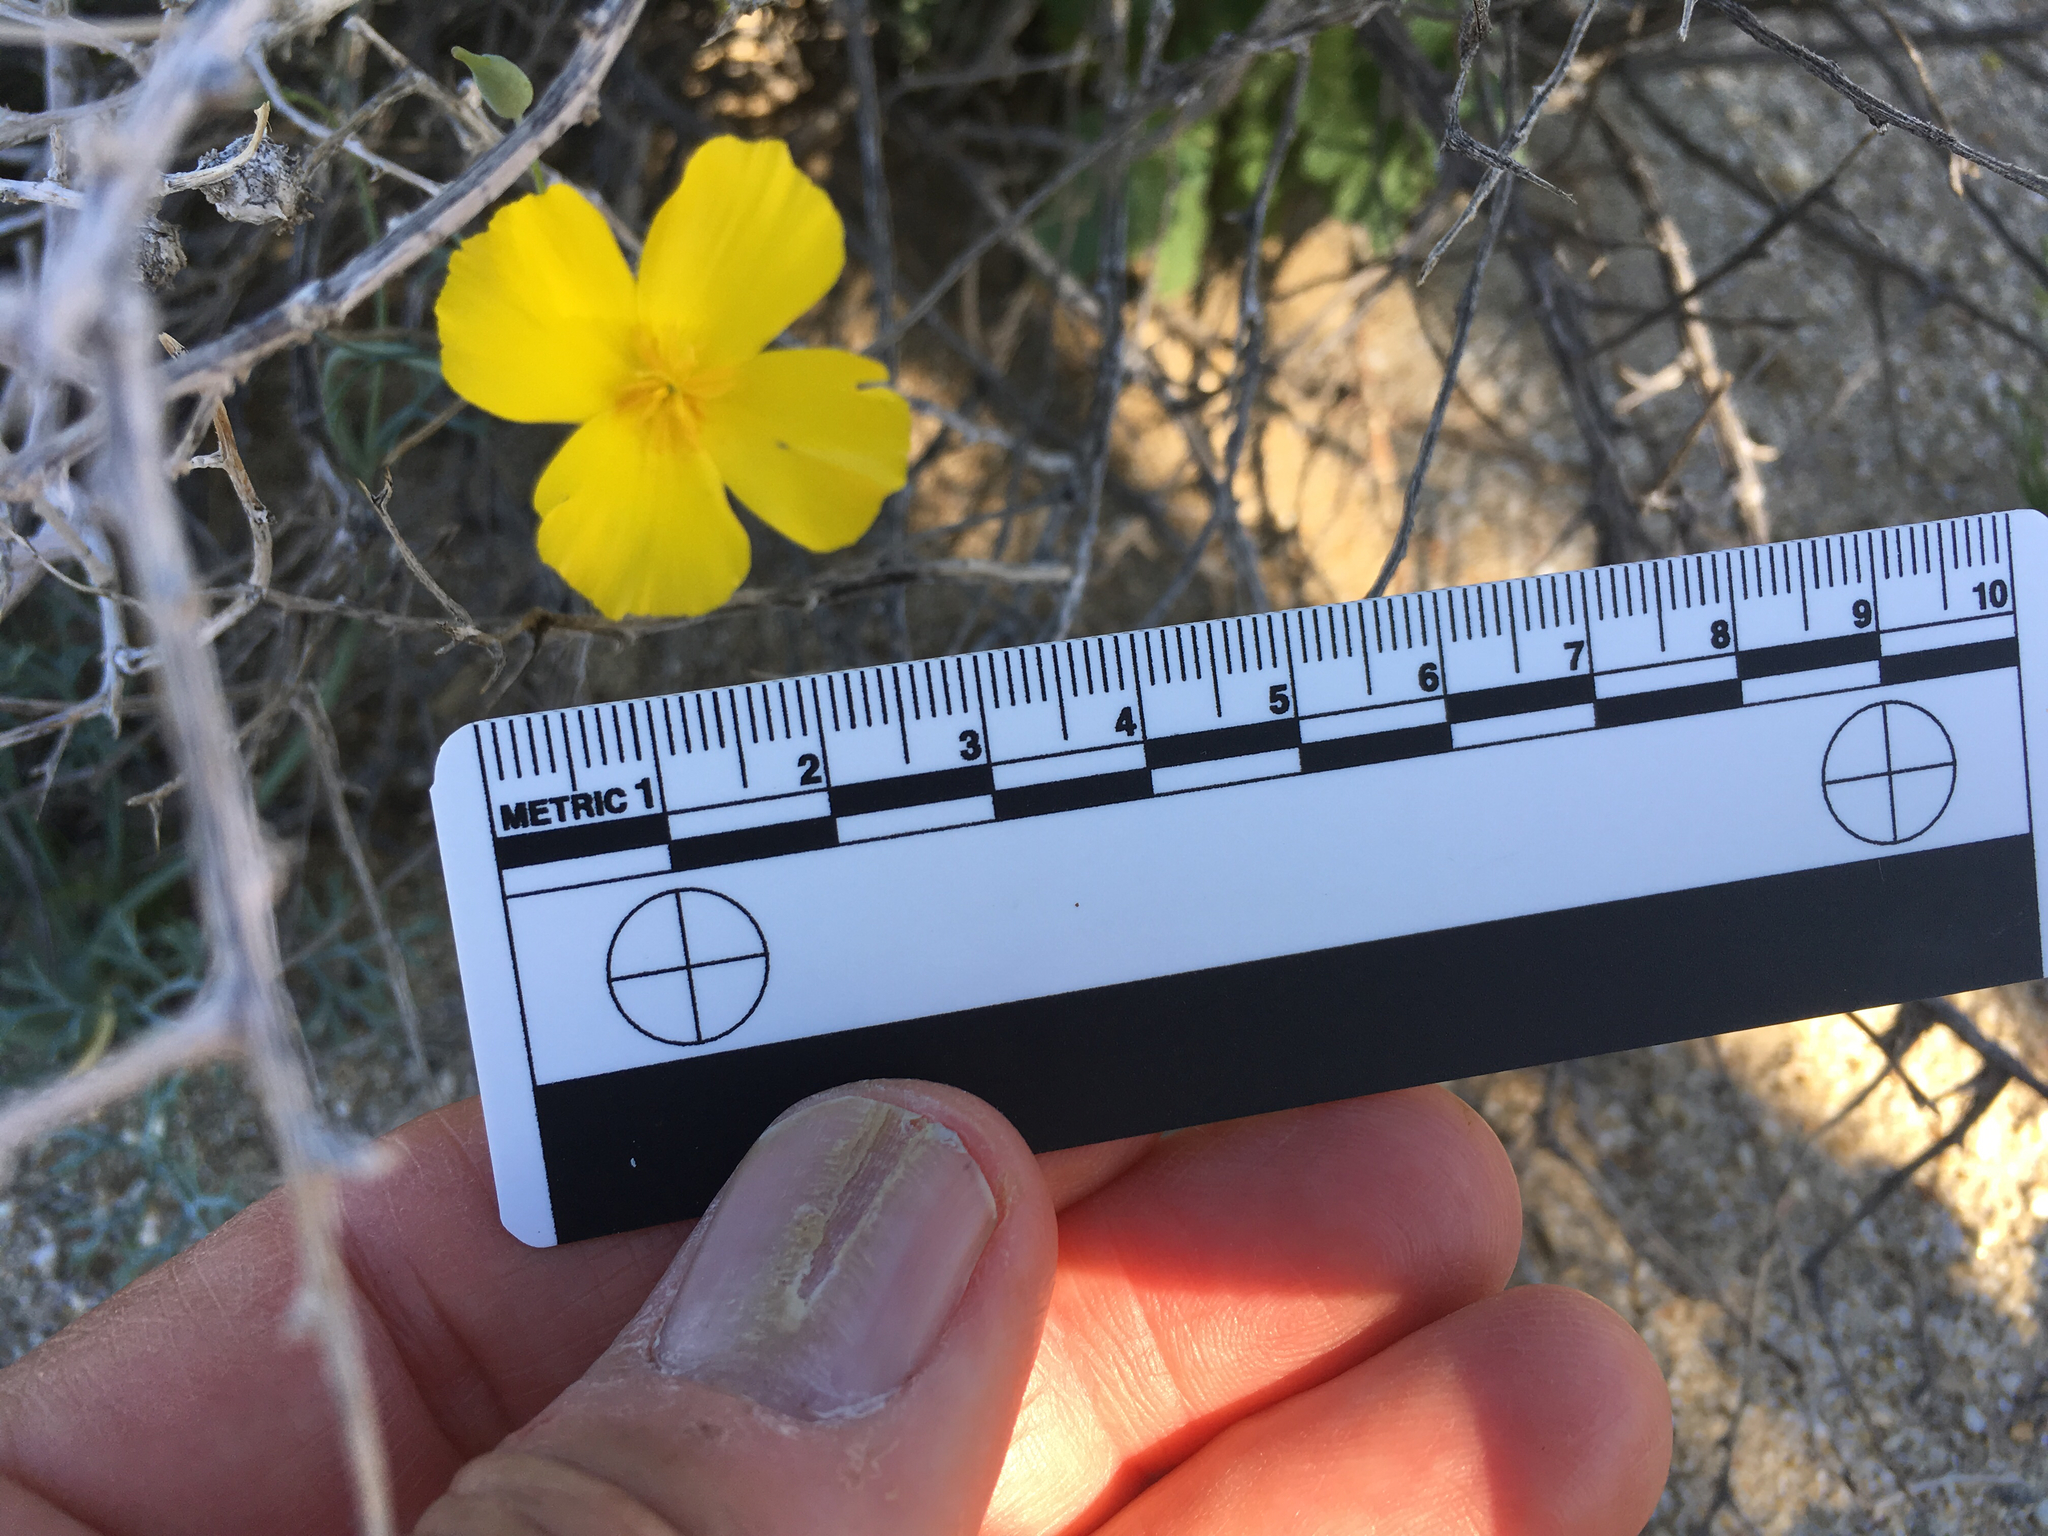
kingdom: Plantae
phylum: Tracheophyta
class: Magnoliopsida
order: Ranunculales
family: Papaveraceae
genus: Eschscholzia
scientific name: Eschscholzia parishii
